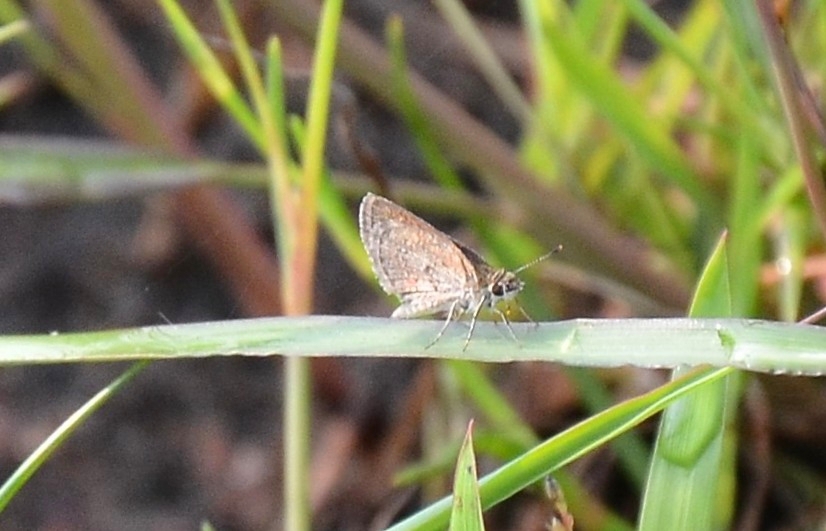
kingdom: Animalia
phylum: Arthropoda
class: Insecta
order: Lepidoptera
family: Hesperiidae
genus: Aeromachus
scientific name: Aeromachus pygmaeus
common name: Pygmy scrub hopper
